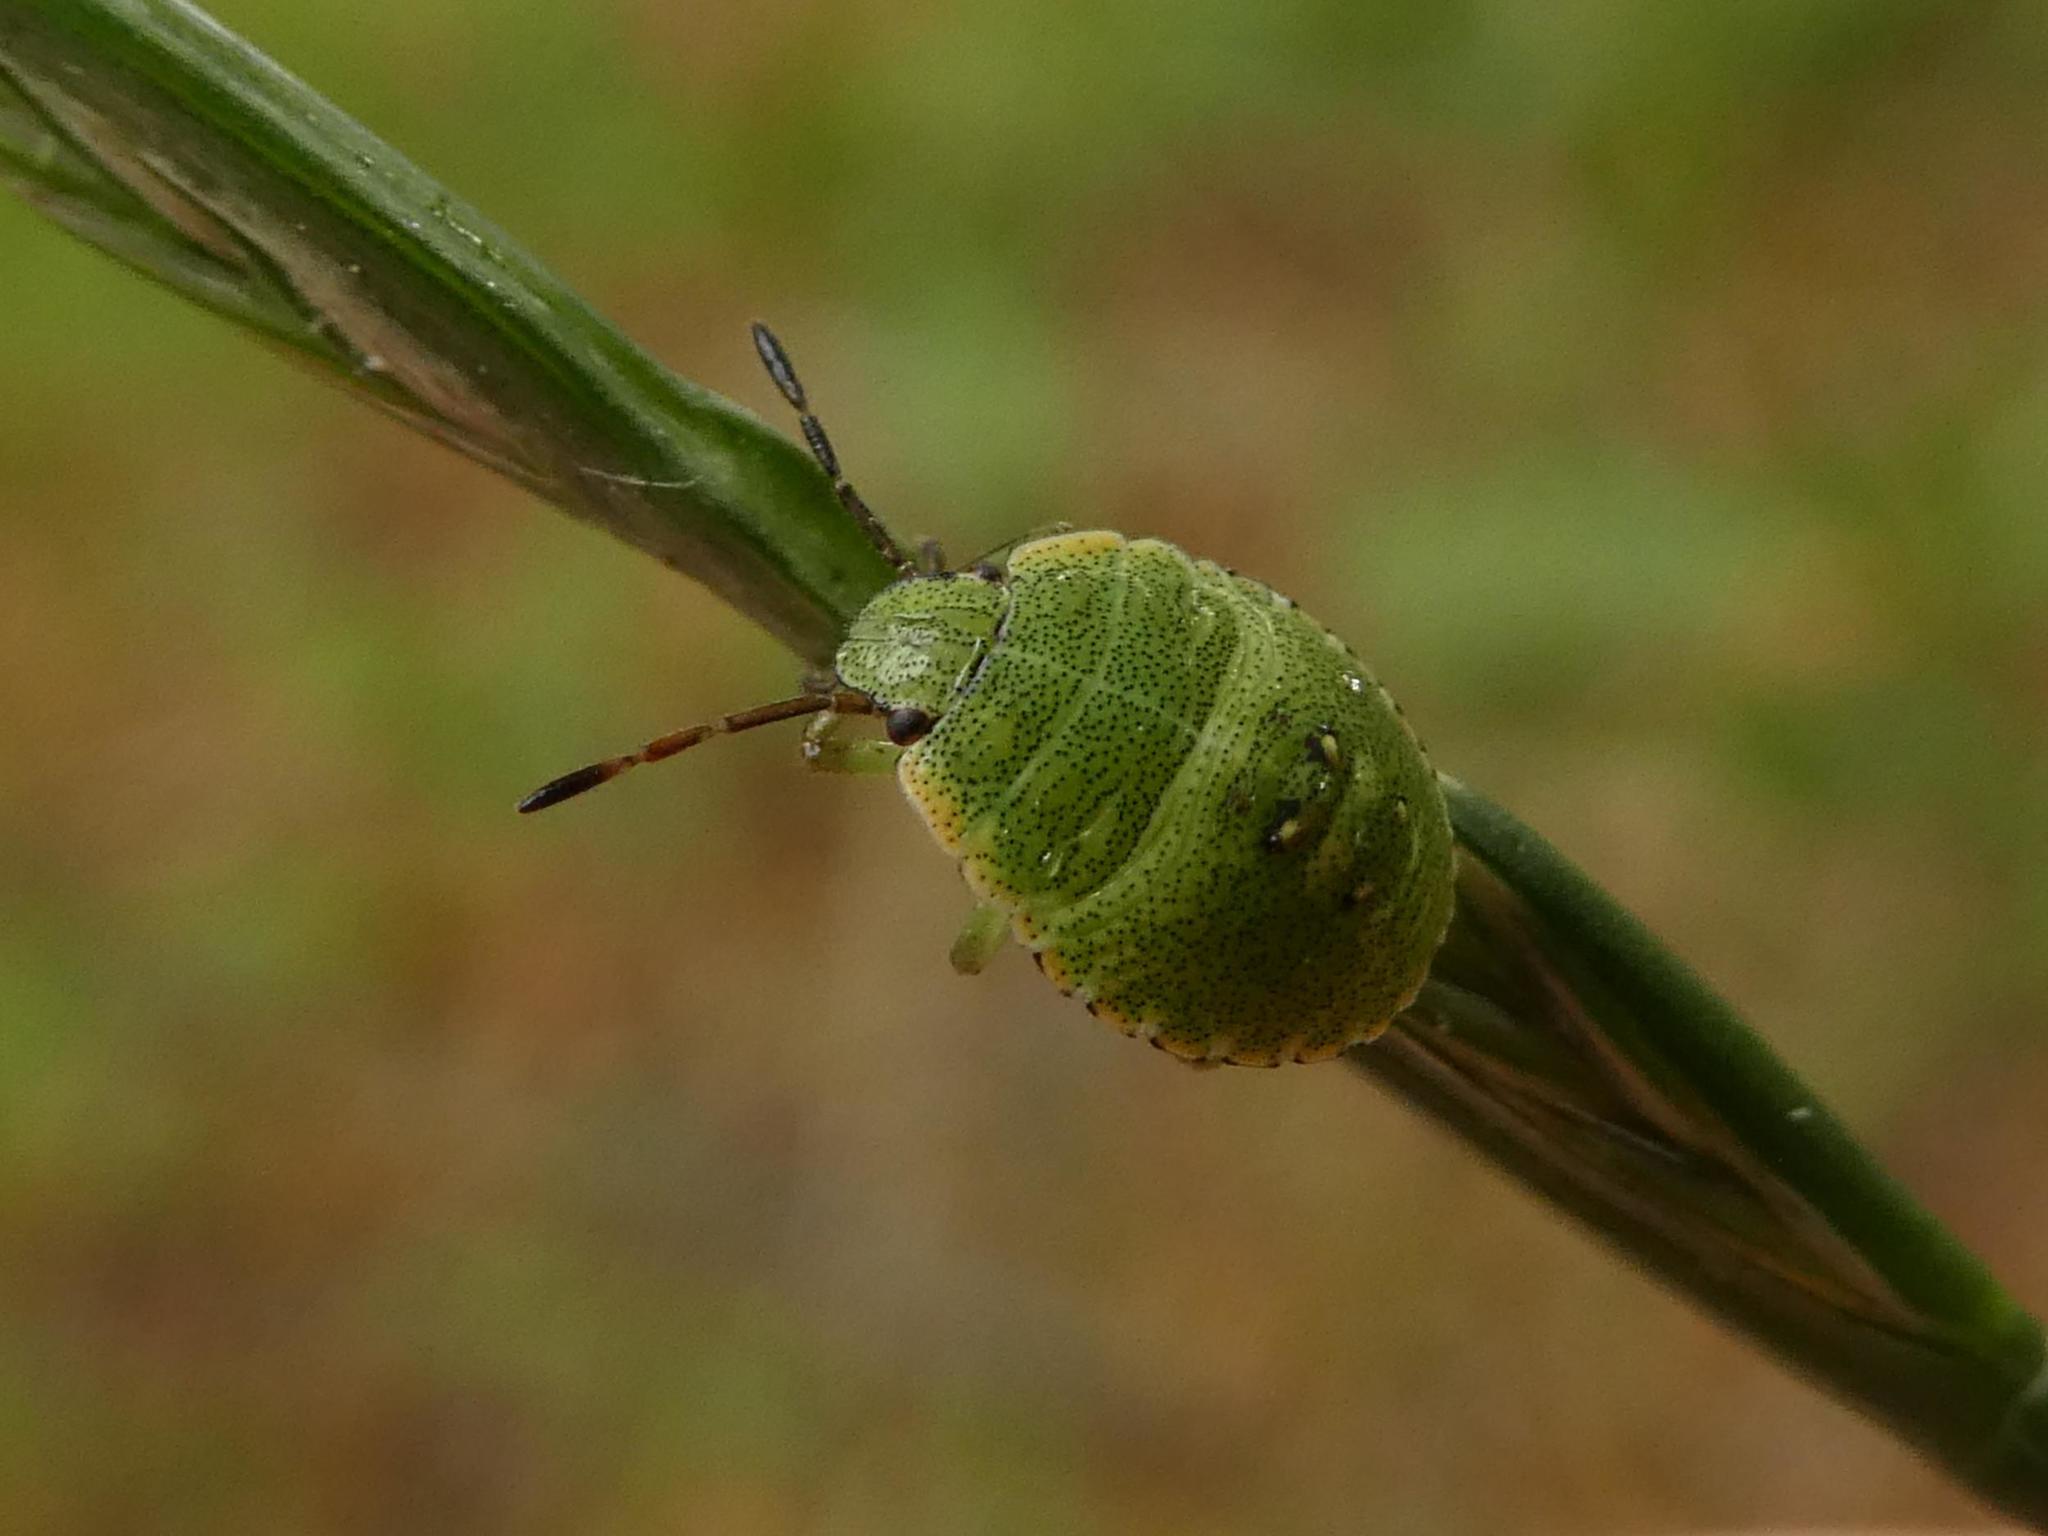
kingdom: Animalia
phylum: Arthropoda
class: Insecta
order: Hemiptera
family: Pentatomidae
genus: Palomena
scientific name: Palomena prasina
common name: Green shieldbug
